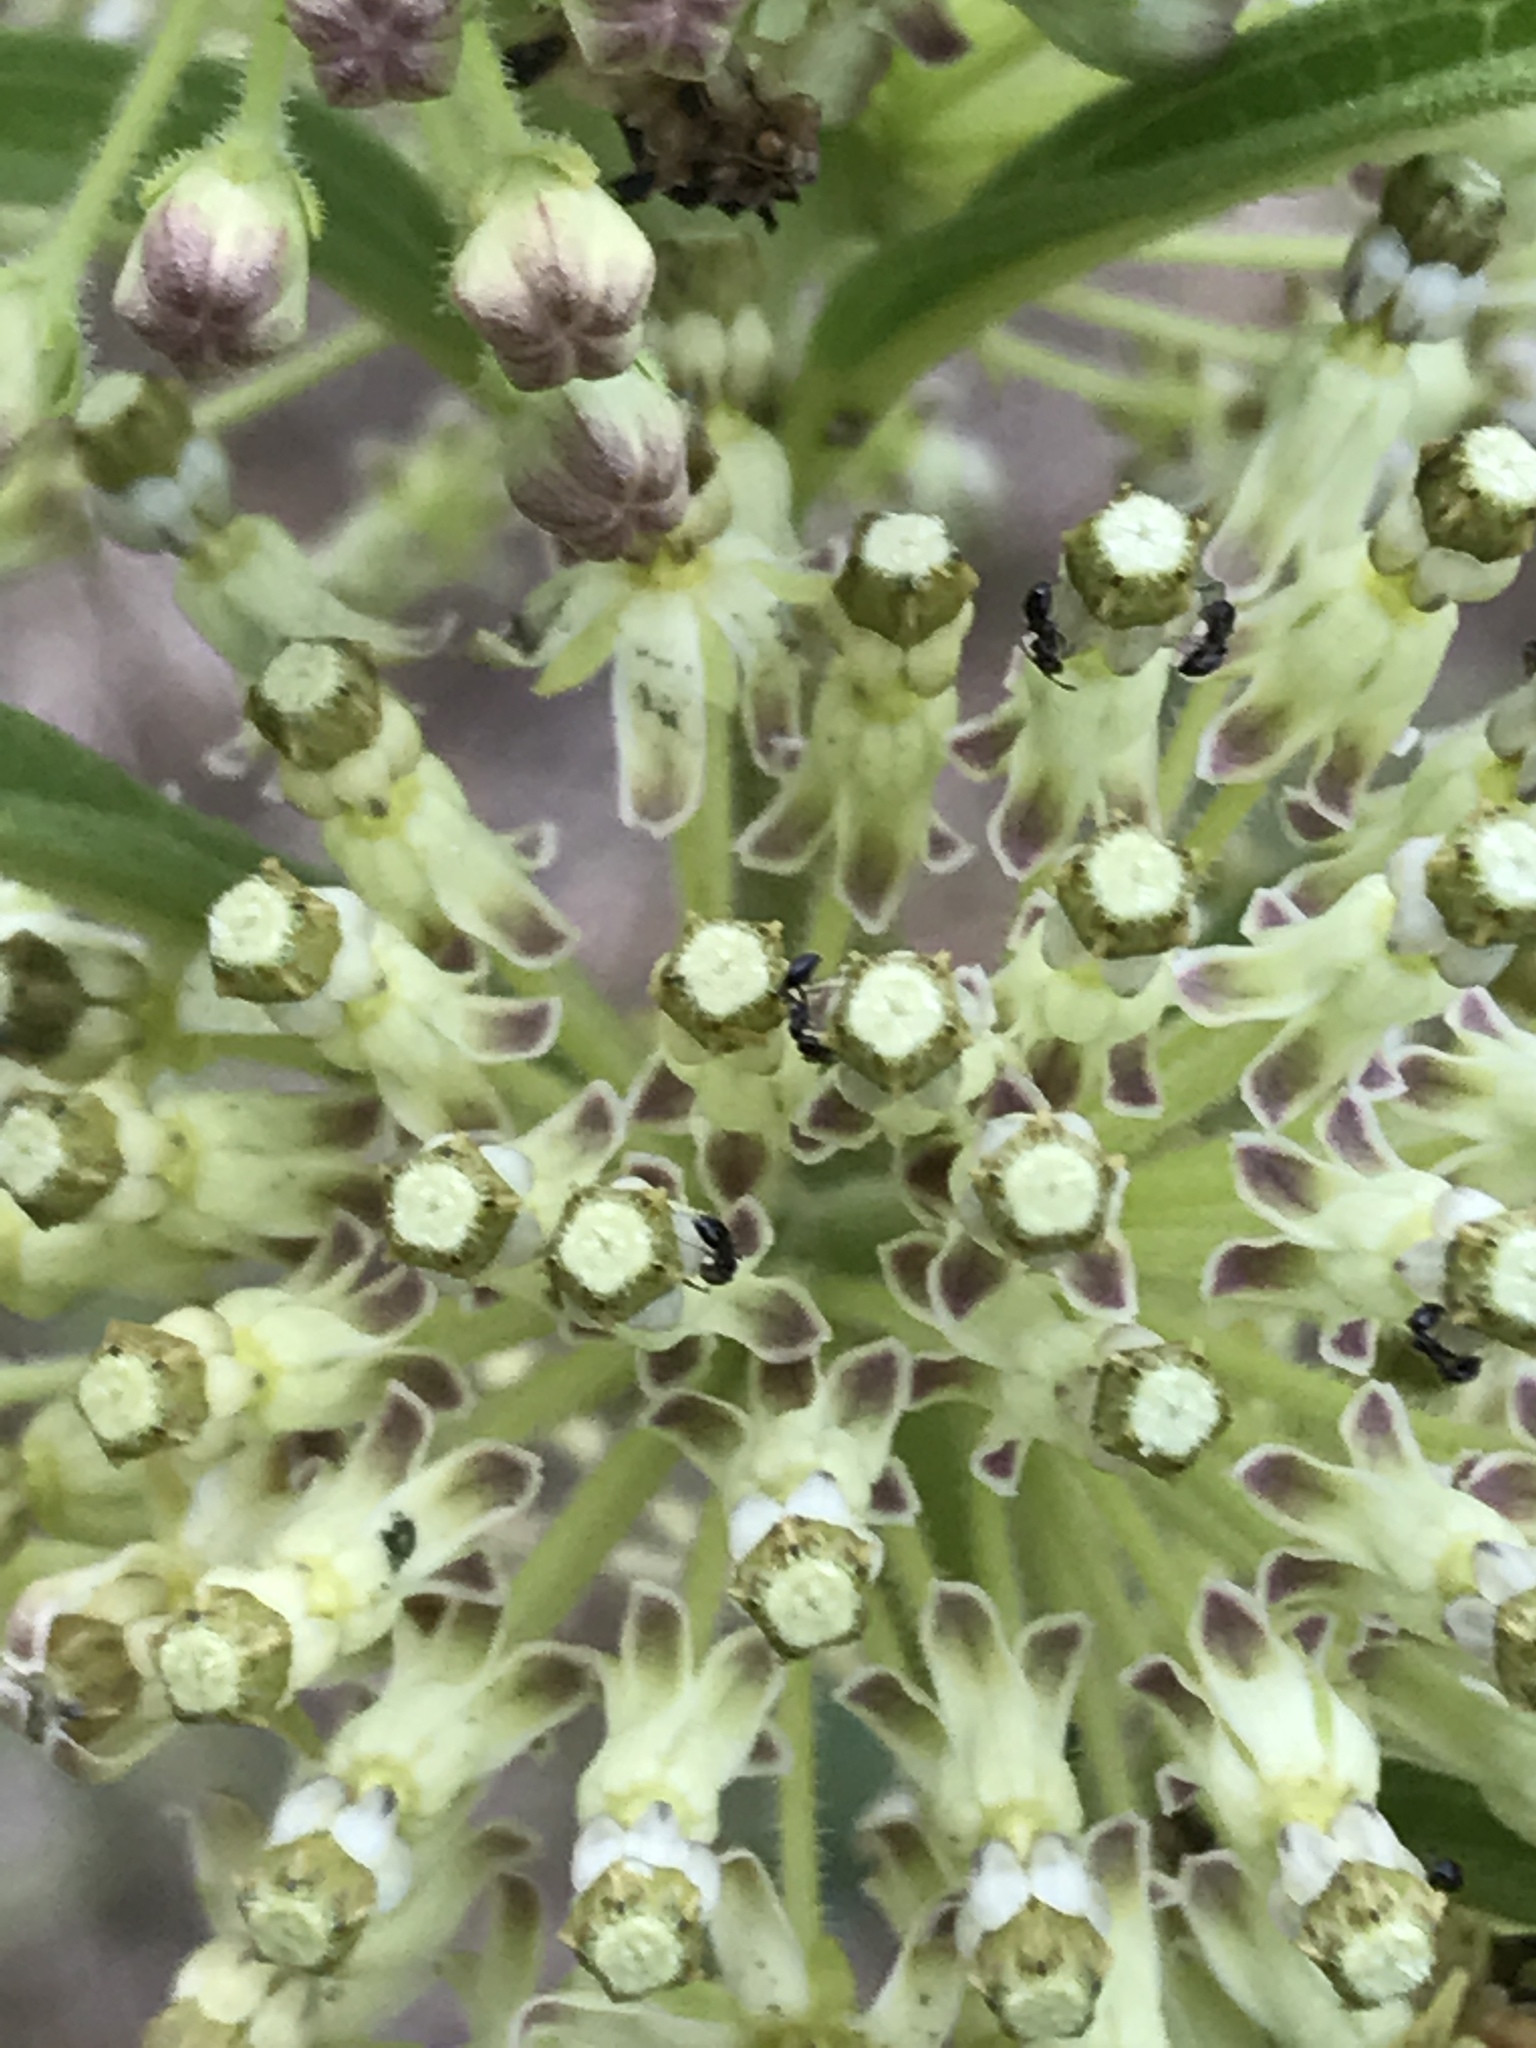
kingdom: Plantae
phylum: Tracheophyta
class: Magnoliopsida
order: Gentianales
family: Apocynaceae
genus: Asclepias
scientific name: Asclepias hirtella
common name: Prairie milkweed
